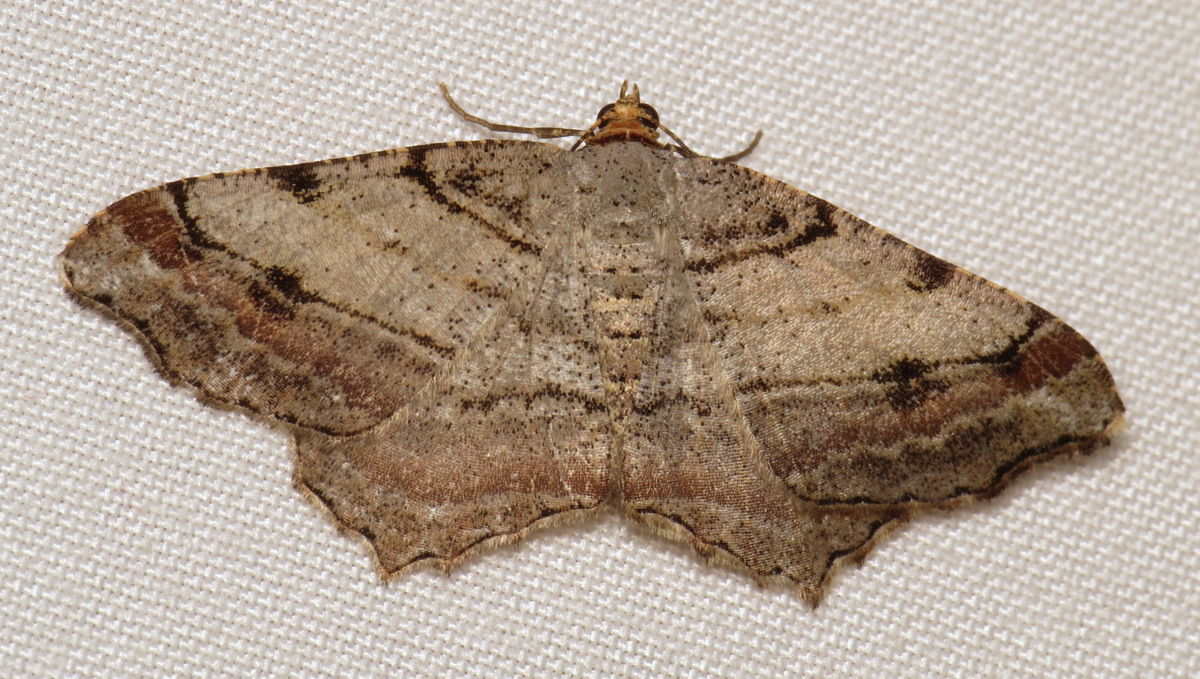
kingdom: Animalia
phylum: Arthropoda
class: Insecta
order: Lepidoptera
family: Geometridae
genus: Macaria
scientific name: Macaria multilineata
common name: Many-lined angle
